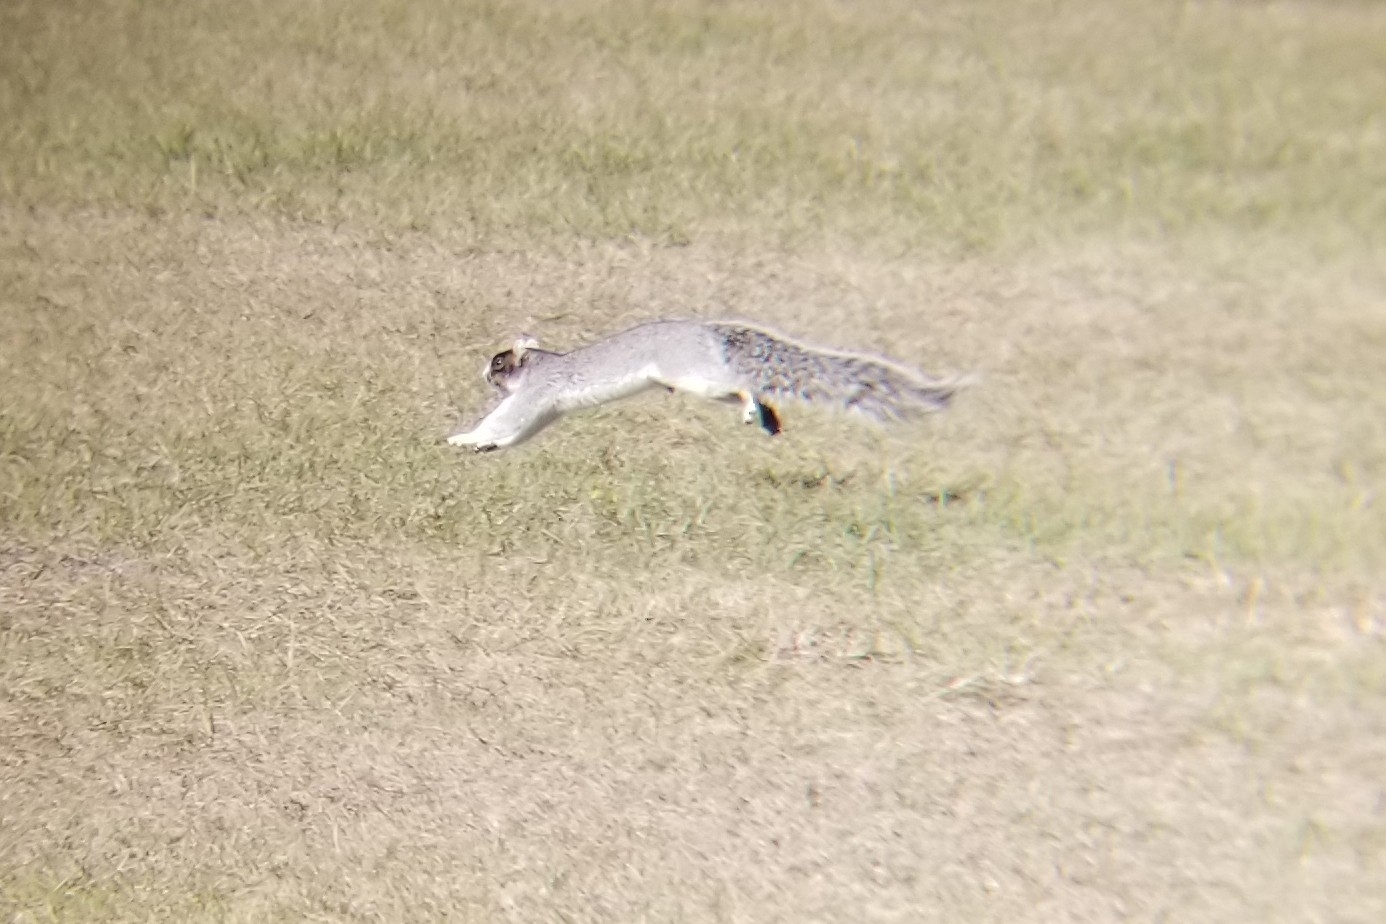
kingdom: Animalia
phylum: Chordata
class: Mammalia
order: Rodentia
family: Sciuridae
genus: Sciurus
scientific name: Sciurus niger
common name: Fox squirrel
